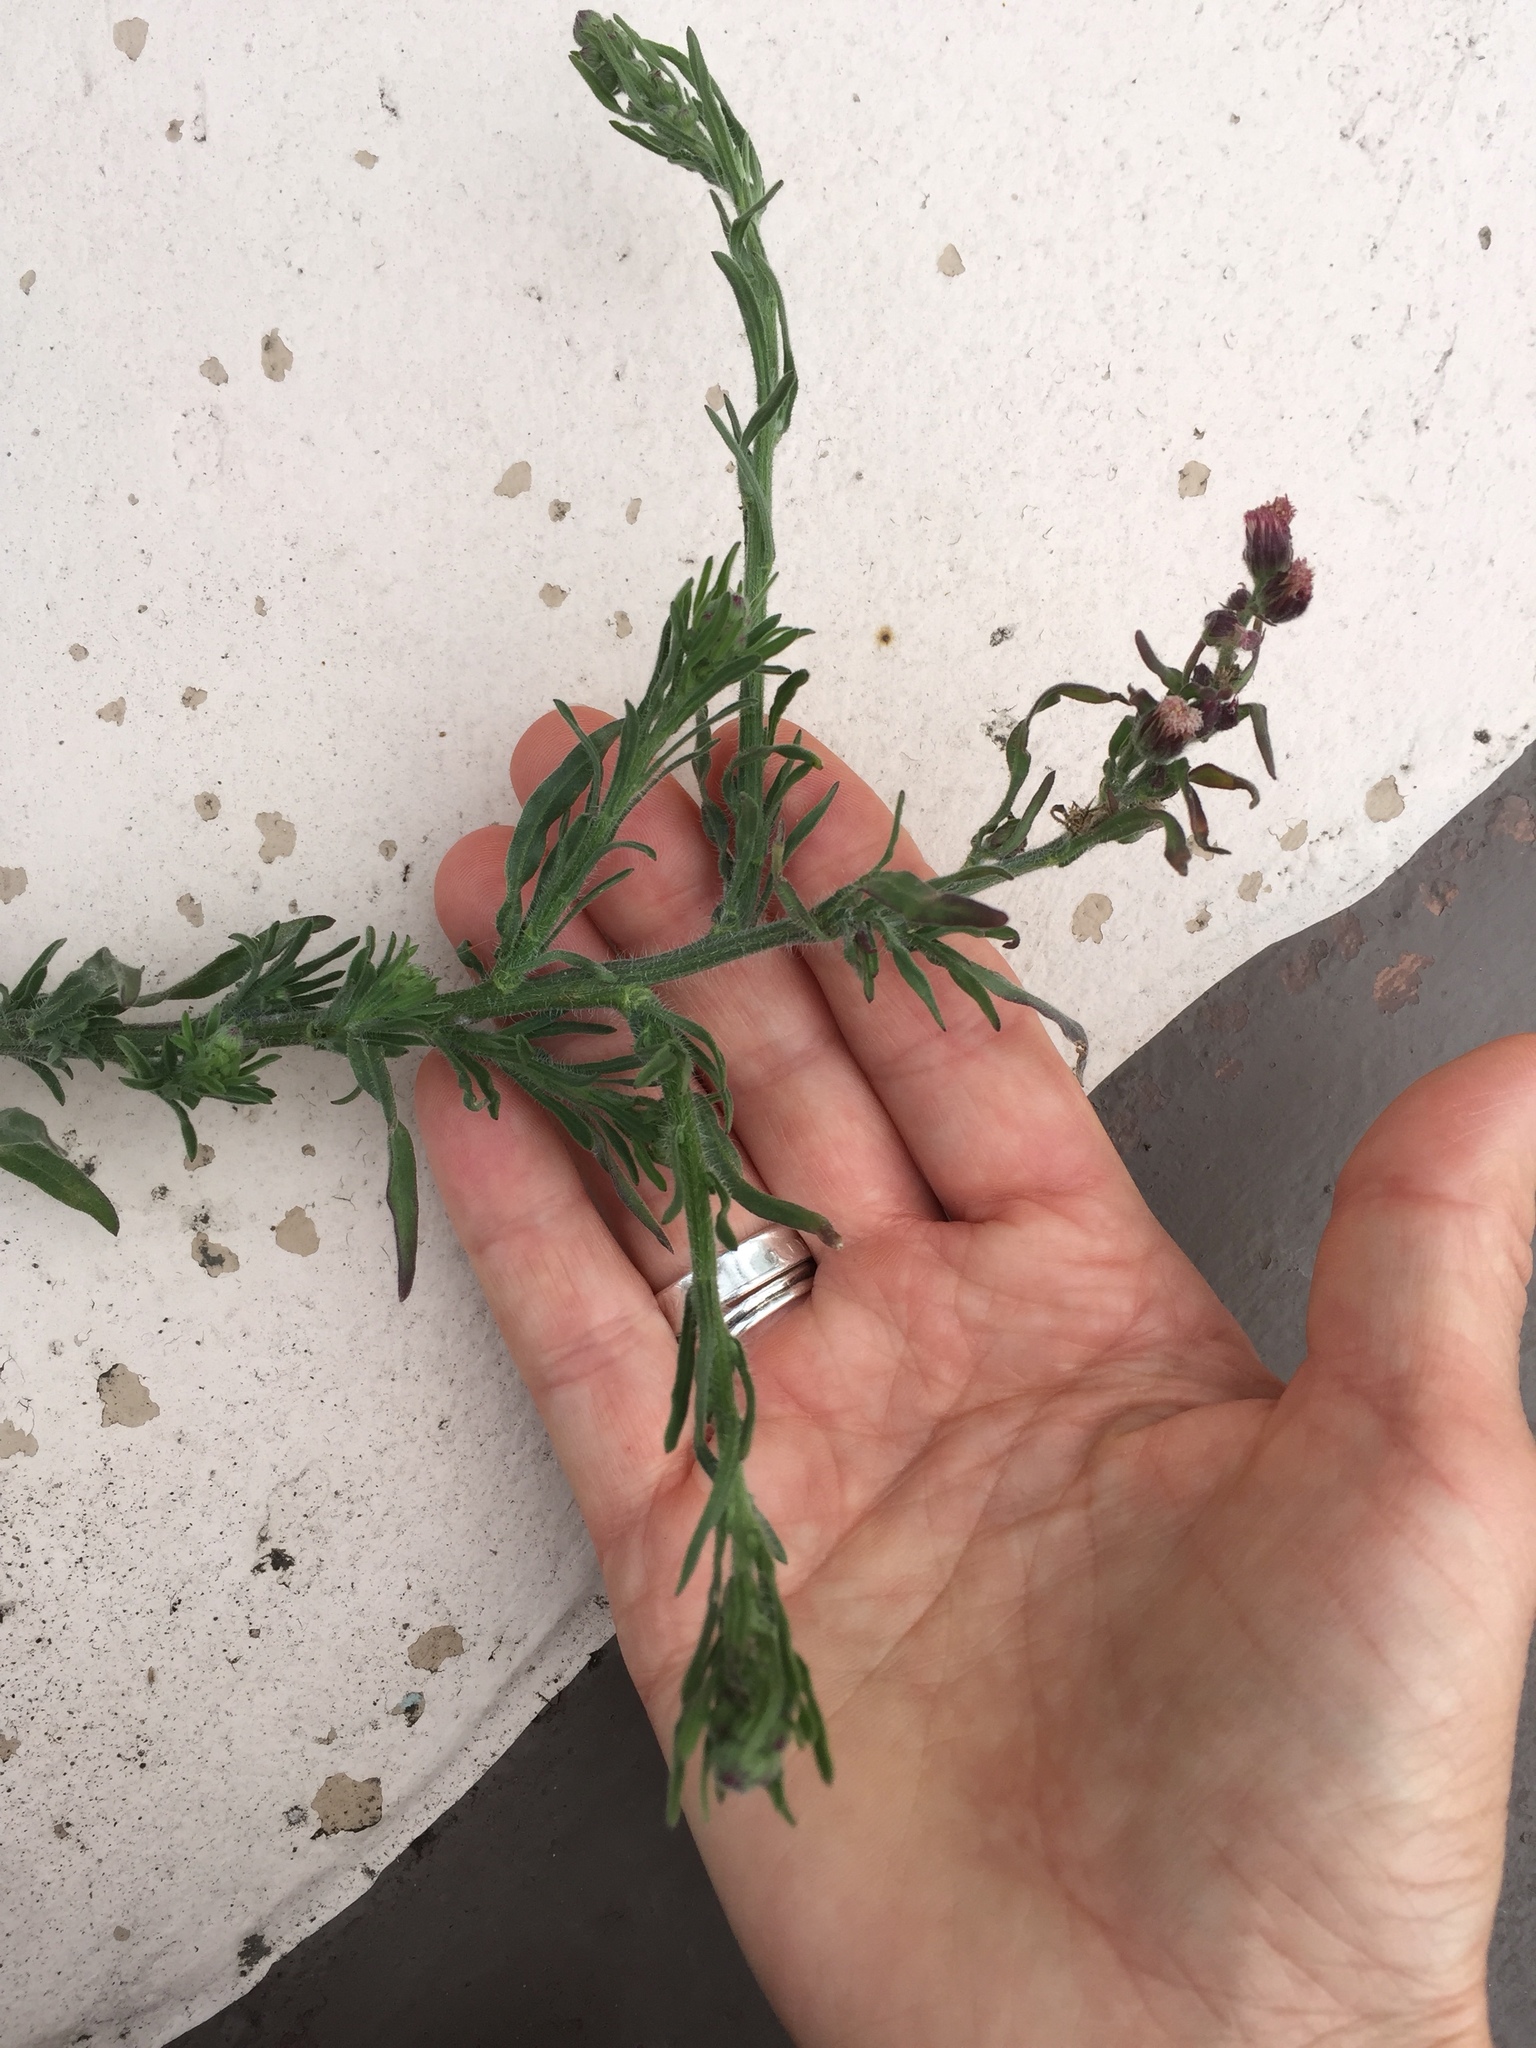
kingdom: Plantae
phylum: Tracheophyta
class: Magnoliopsida
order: Asterales
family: Asteraceae
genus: Erigeron
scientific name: Erigeron bonariensis
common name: Argentine fleabane
